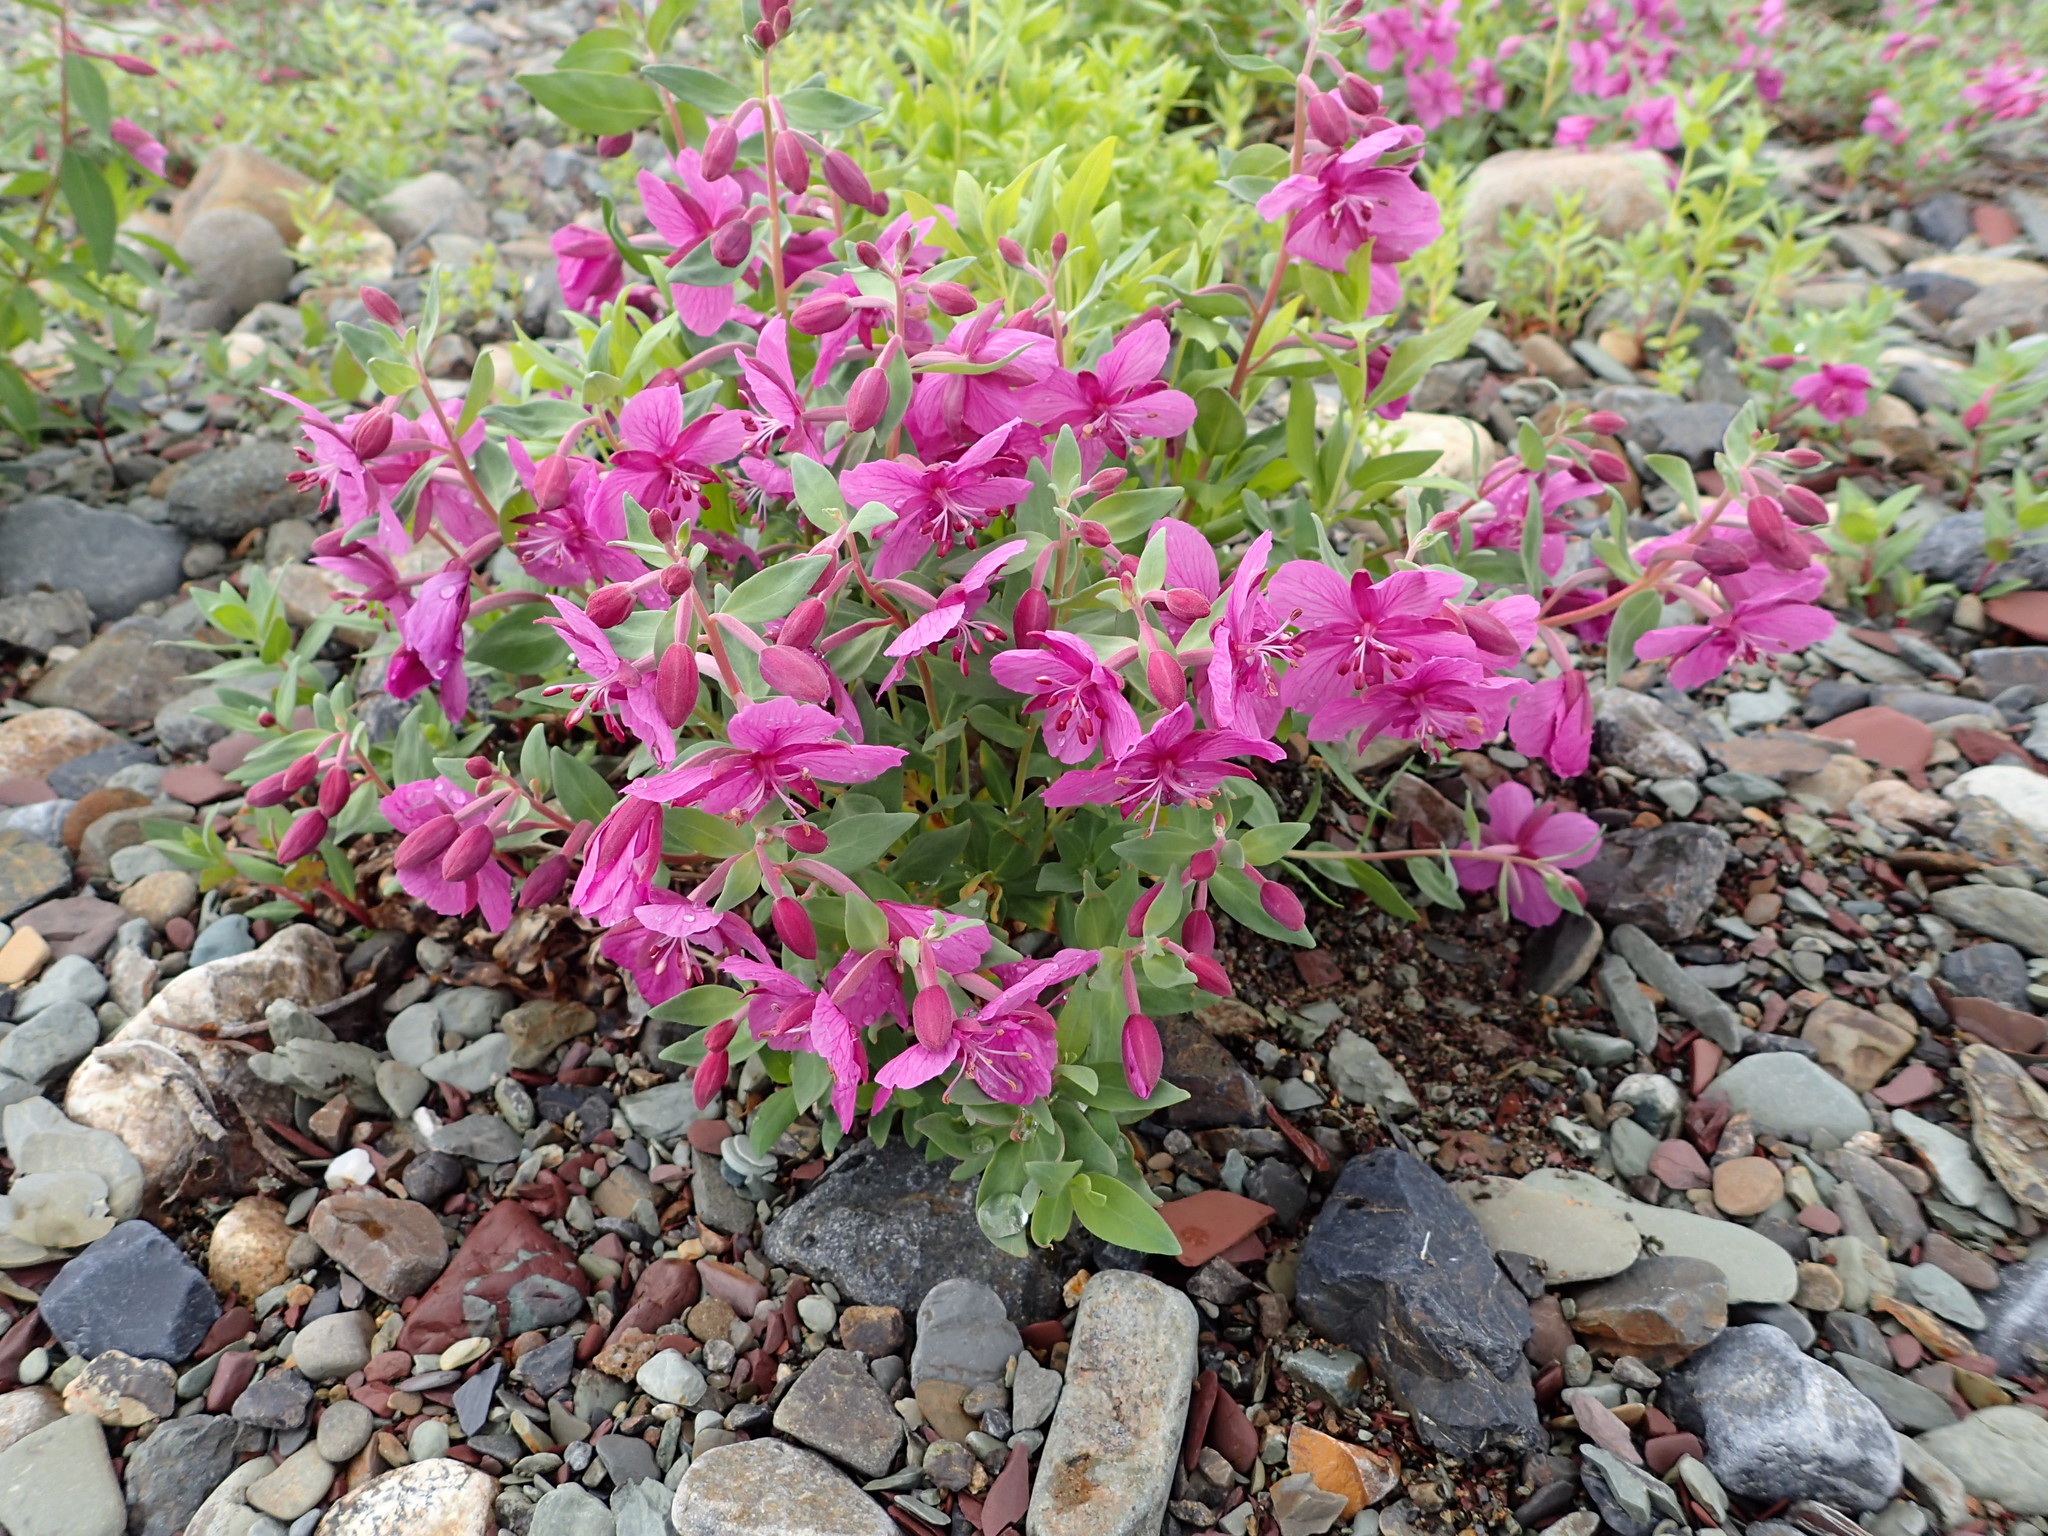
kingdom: Plantae
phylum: Tracheophyta
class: Magnoliopsida
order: Myrtales
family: Onagraceae
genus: Chamaenerion
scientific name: Chamaenerion latifolium
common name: Dwarf fireweed
